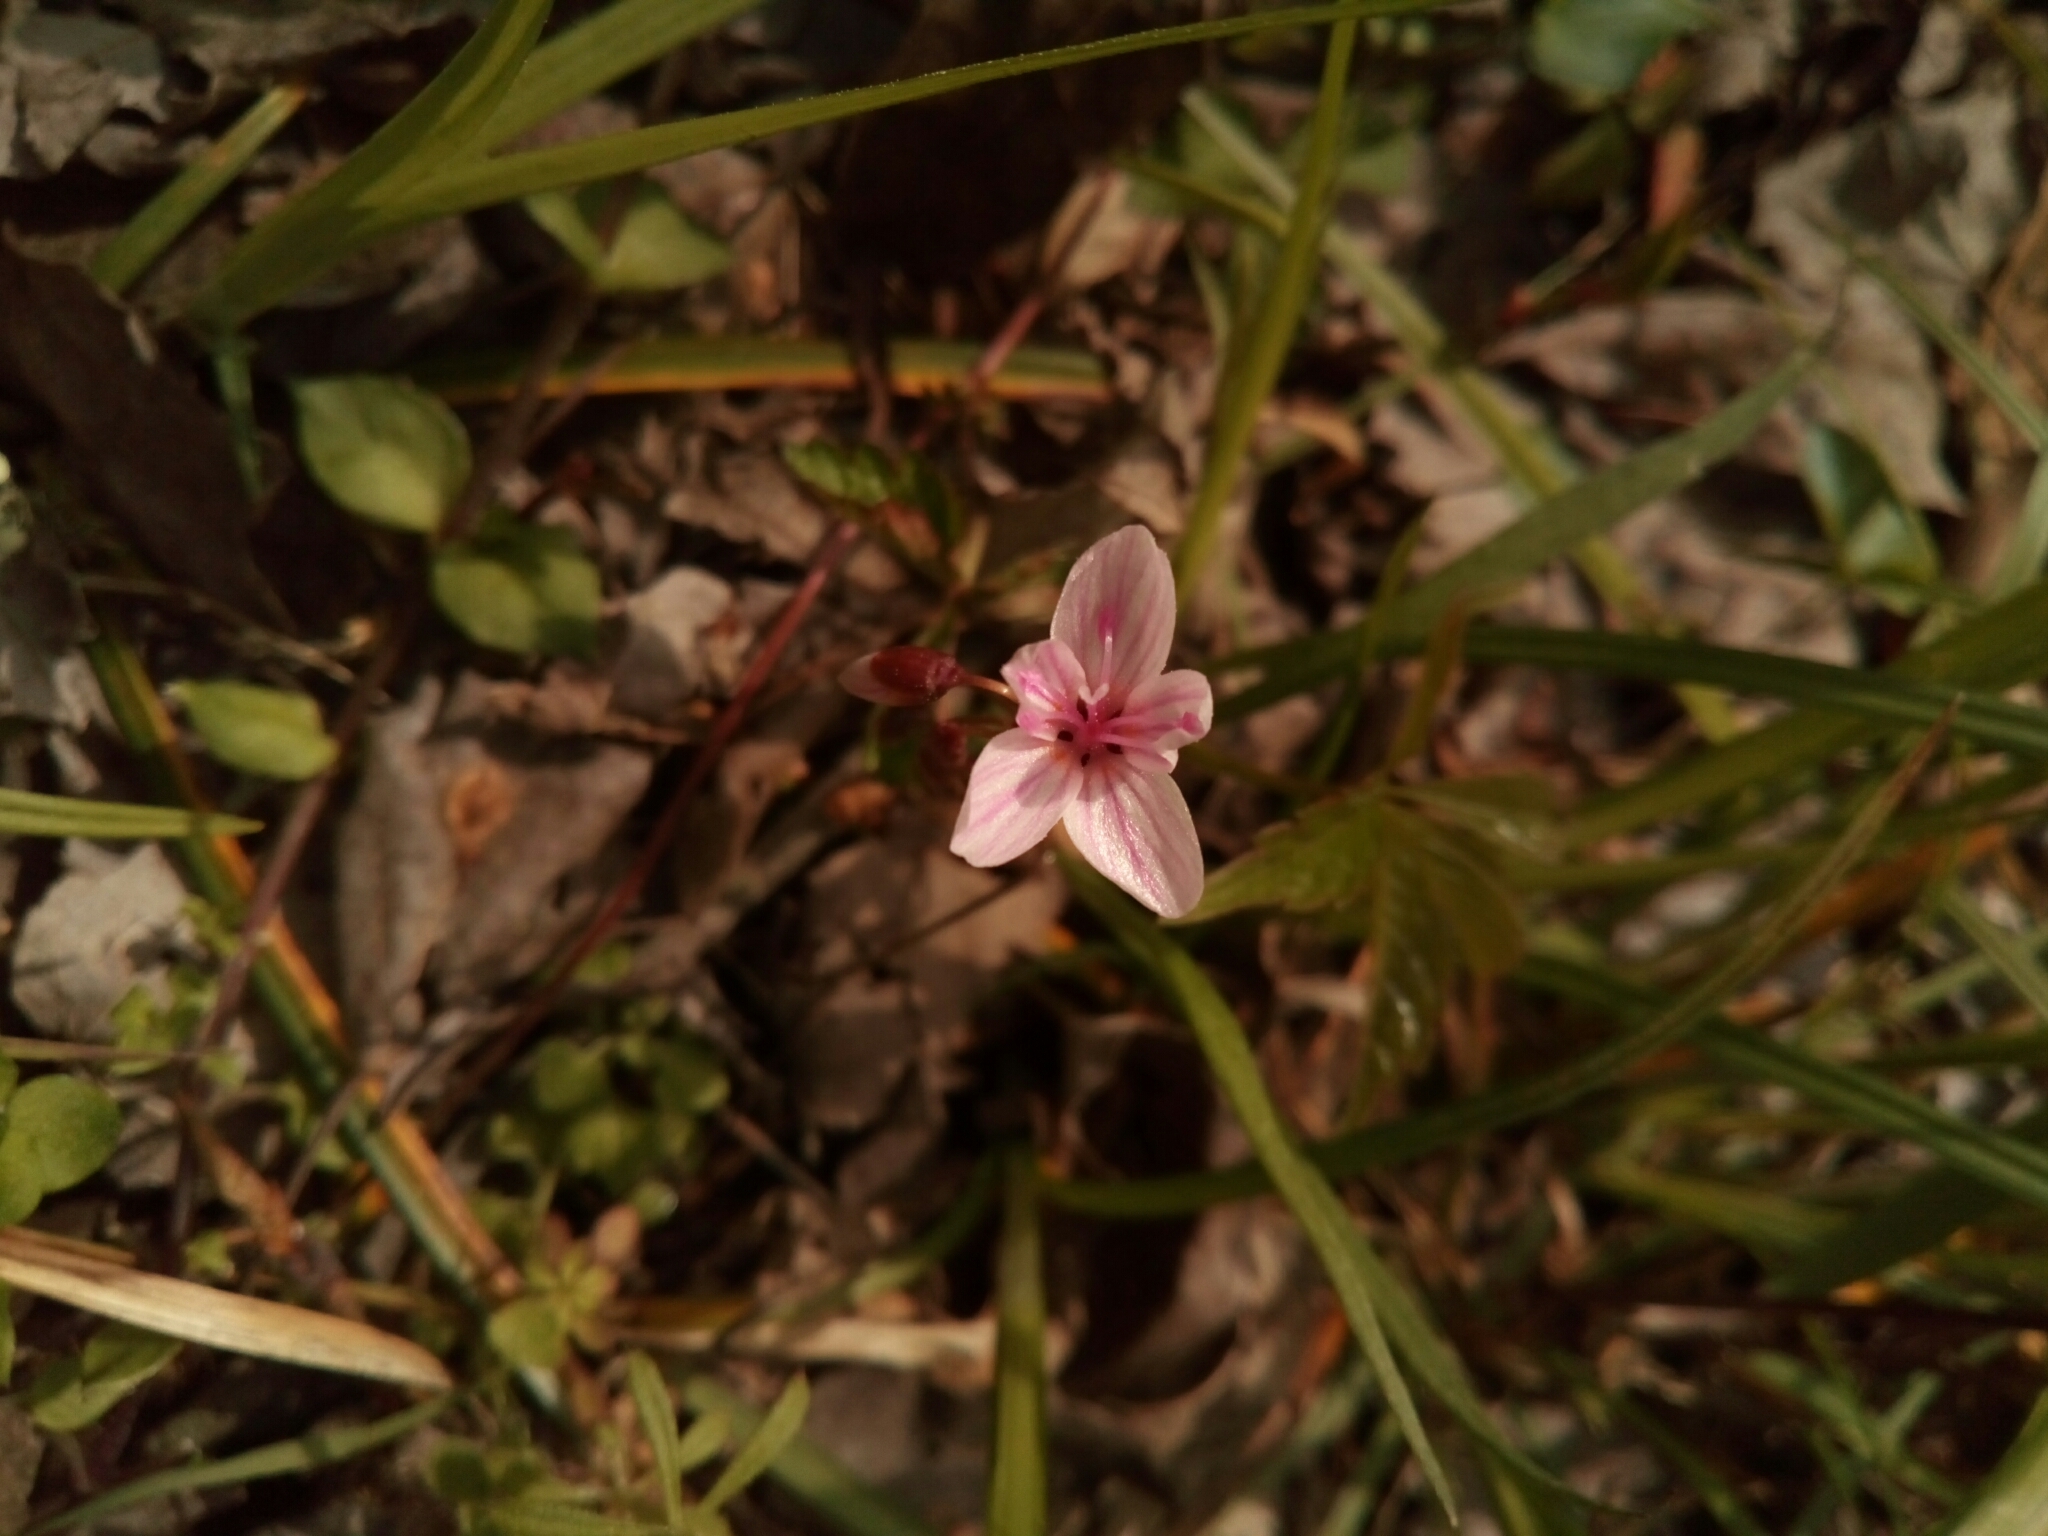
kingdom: Plantae
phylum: Tracheophyta
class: Magnoliopsida
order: Caryophyllales
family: Montiaceae
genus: Claytonia
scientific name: Claytonia virginica
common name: Virginia springbeauty
